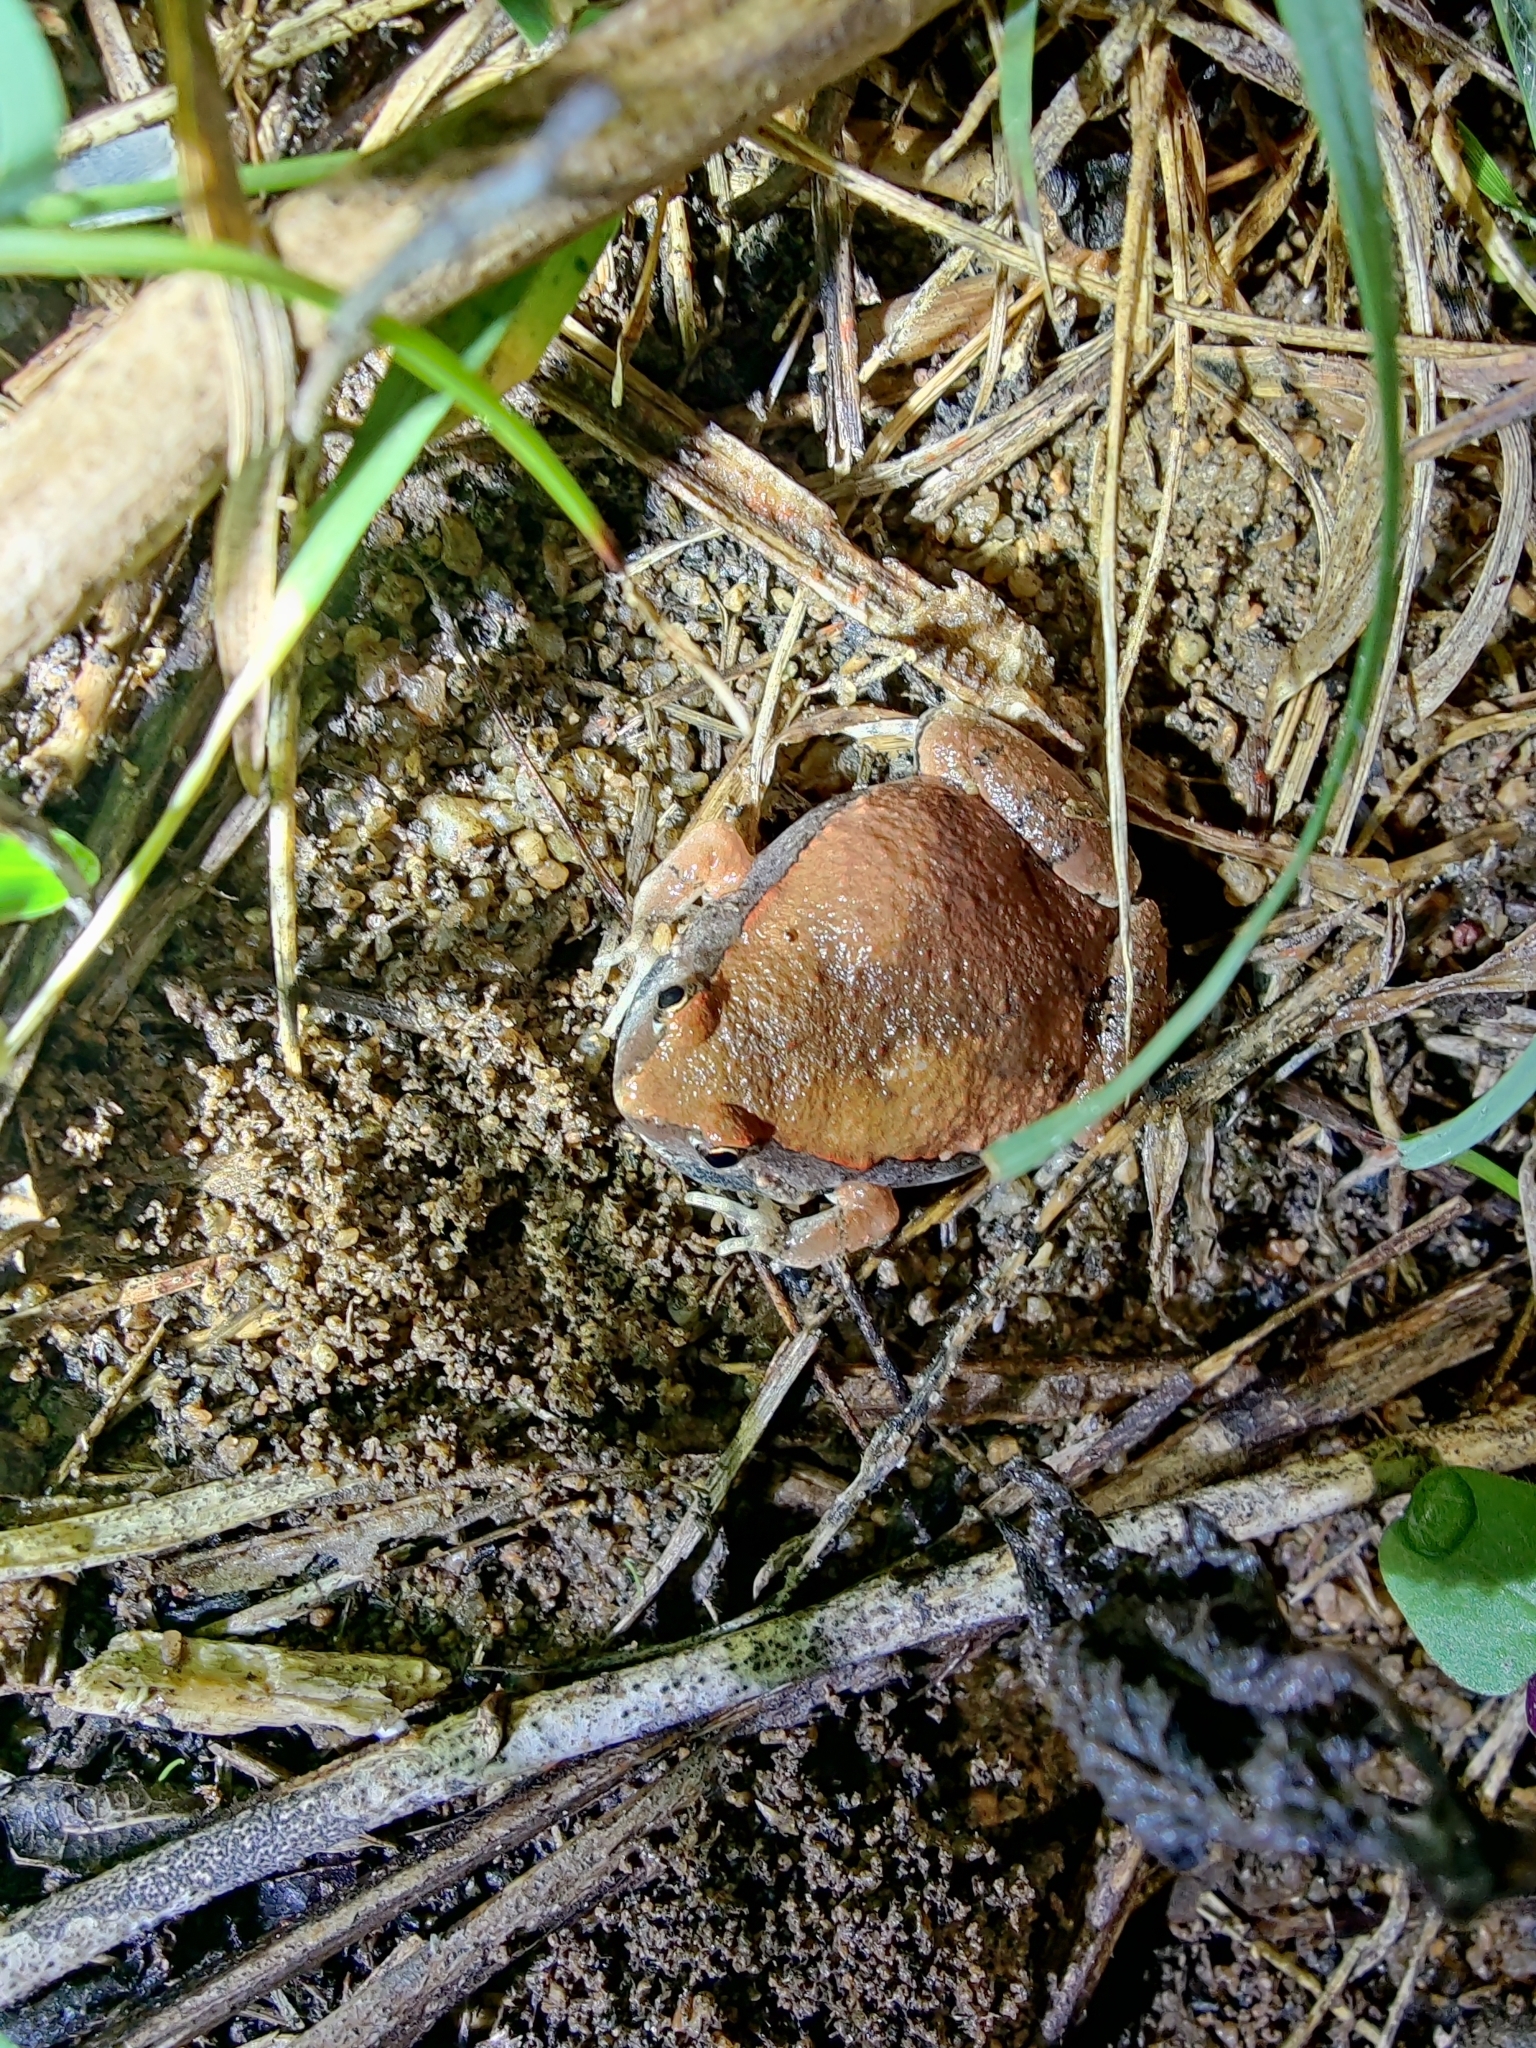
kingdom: Animalia
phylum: Chordata
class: Amphibia
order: Anura
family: Microhylidae
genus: Microhyla
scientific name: Microhyla rubra
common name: Guangdong rice frog
